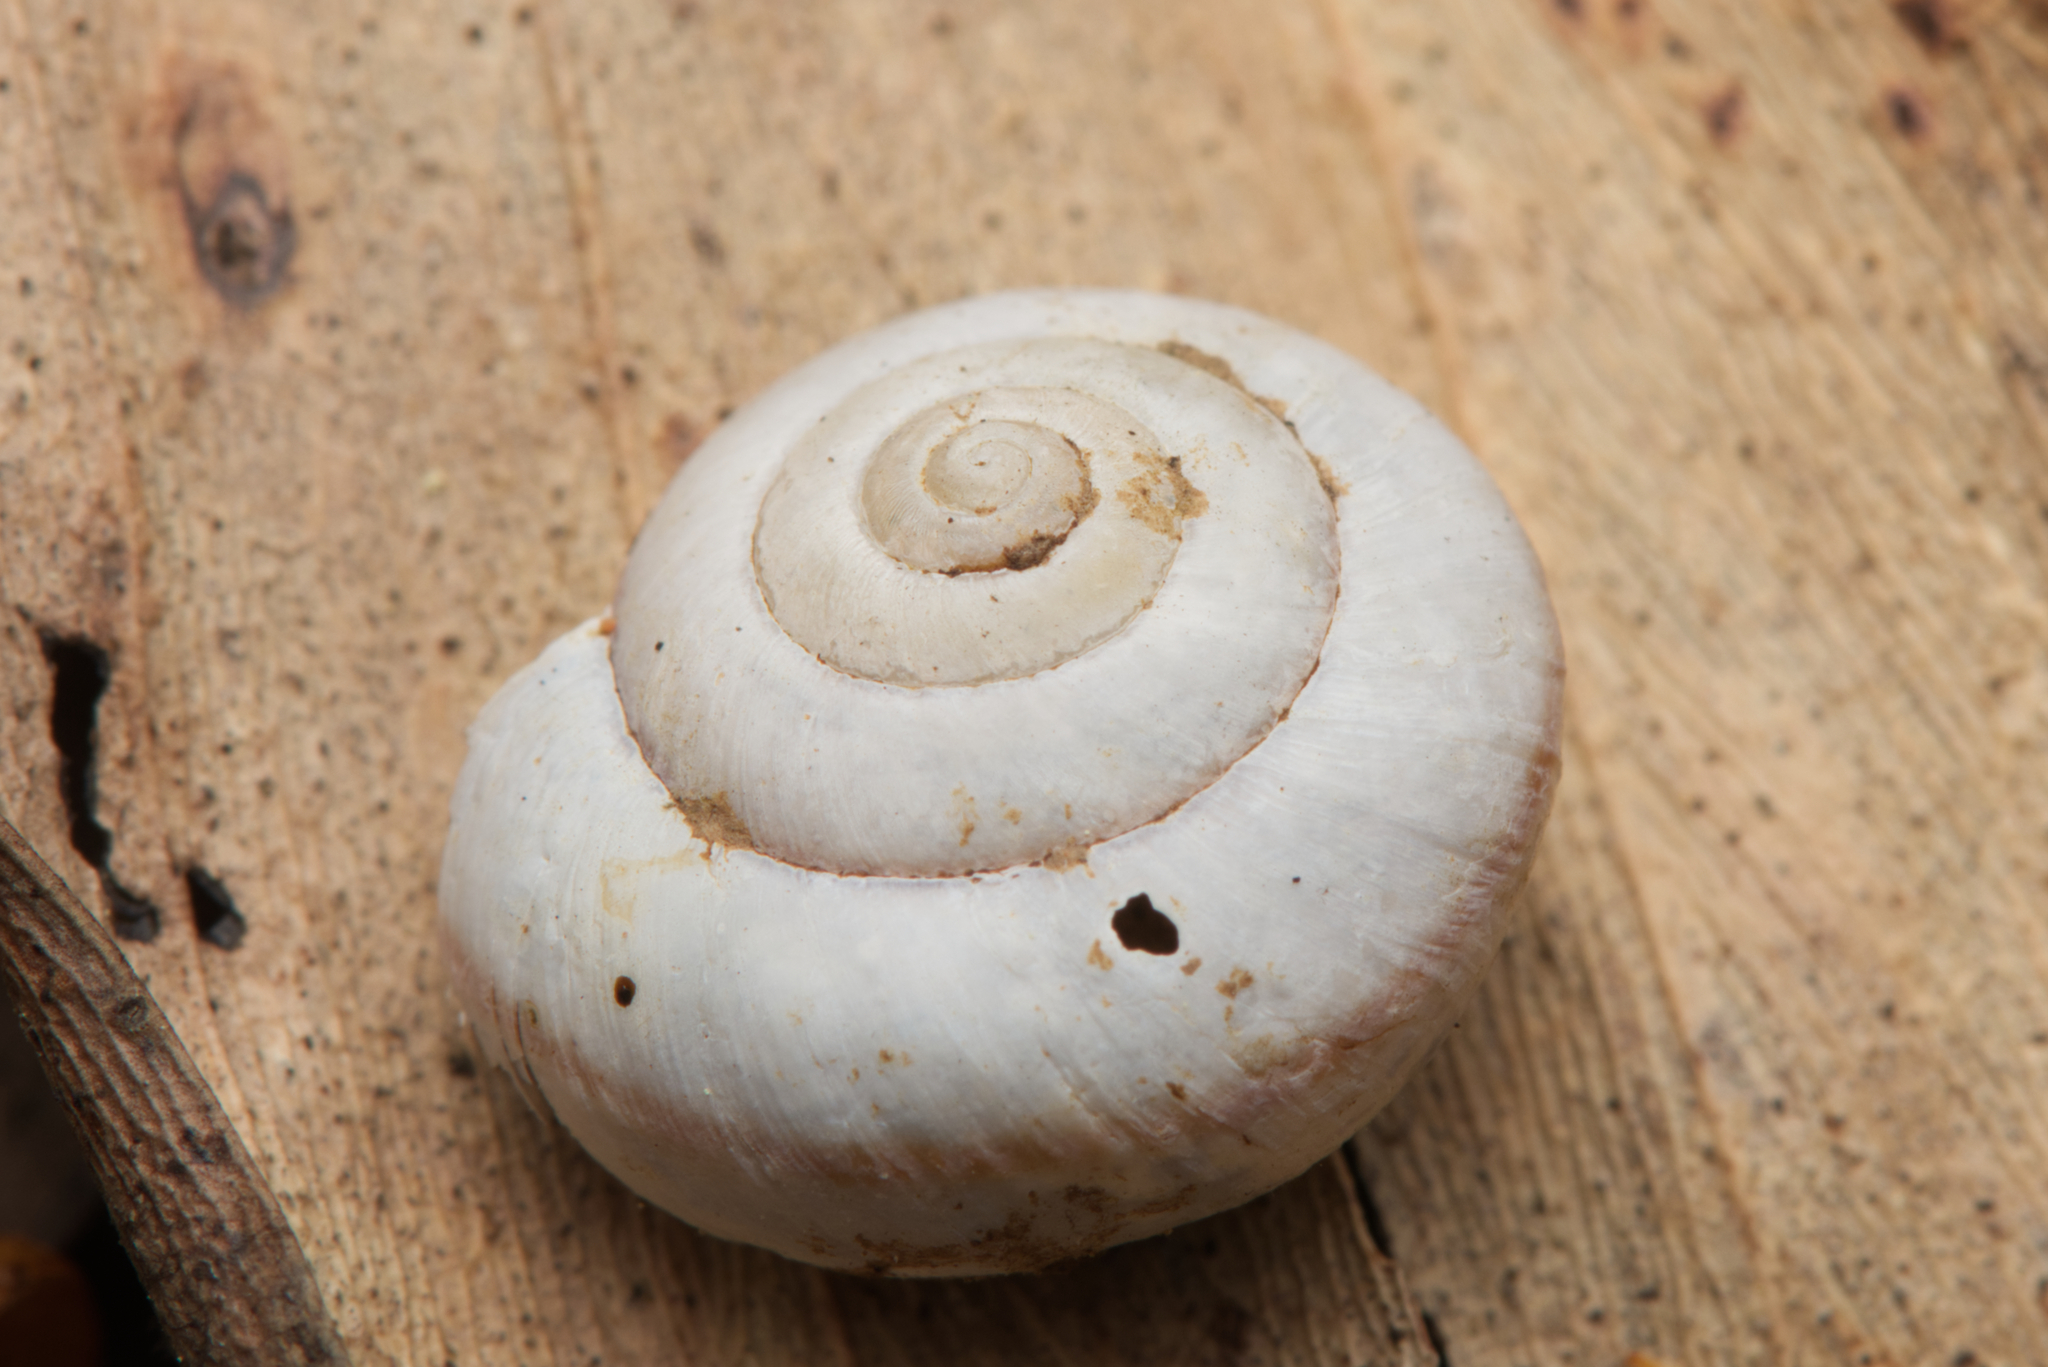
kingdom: Animalia
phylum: Mollusca
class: Gastropoda
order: Stylommatophora
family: Camaenidae
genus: Bradybaena
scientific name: Bradybaena similaris
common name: Asian trampsnail
